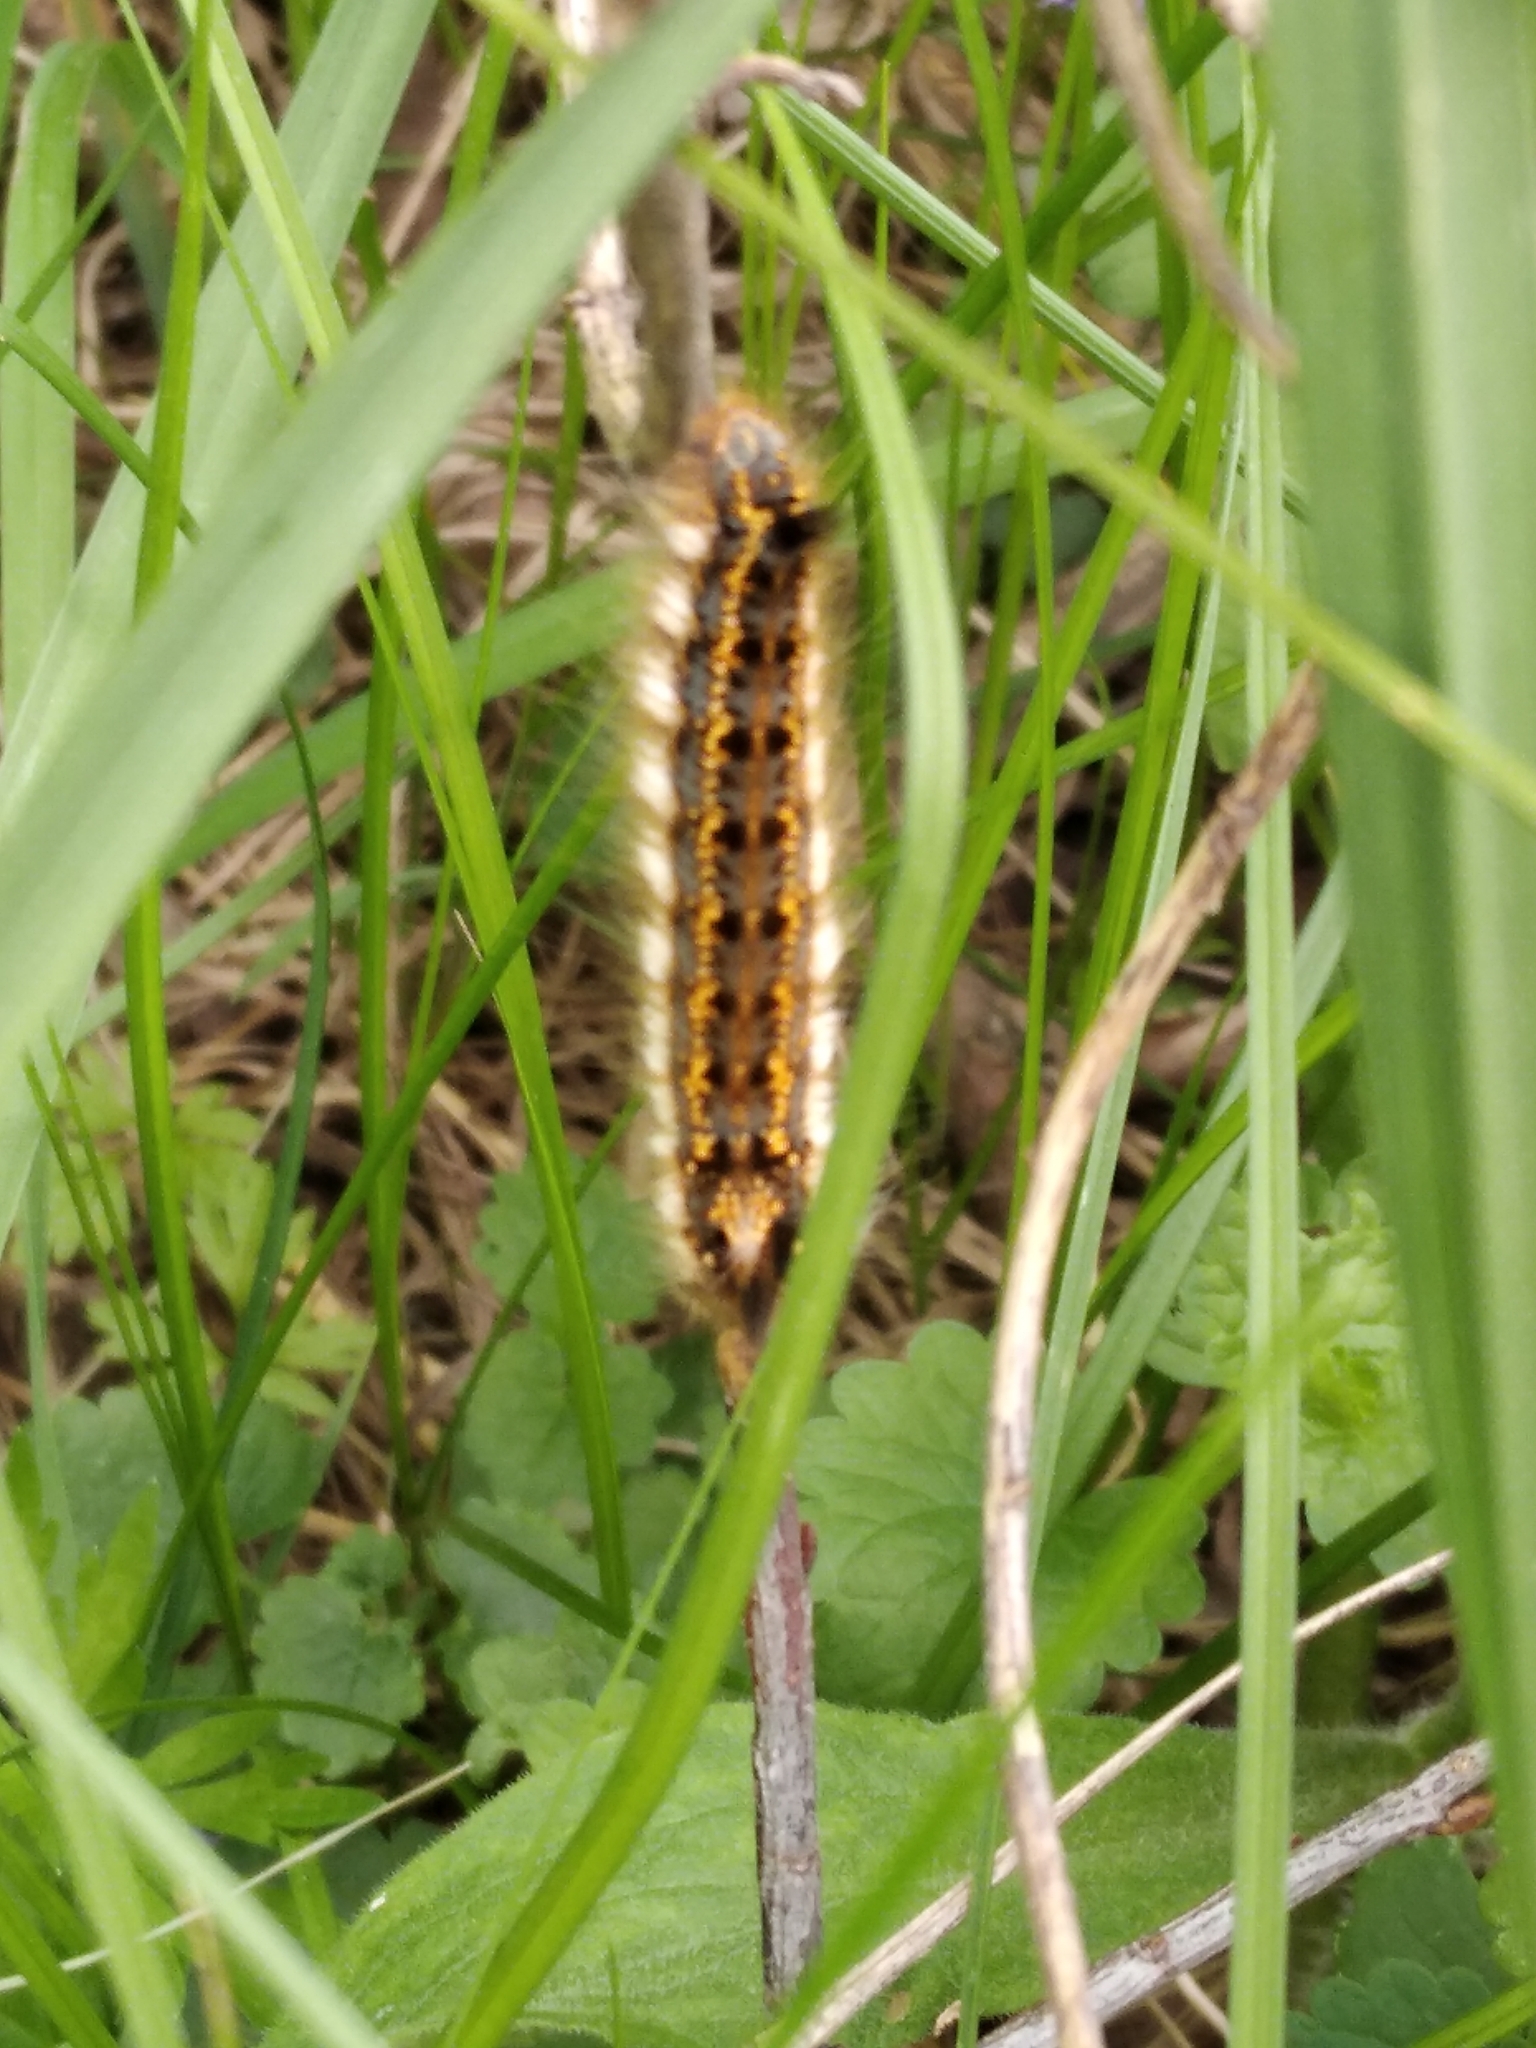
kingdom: Animalia
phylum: Arthropoda
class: Insecta
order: Lepidoptera
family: Lasiocampidae
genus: Euthrix
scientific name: Euthrix potatoria
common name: Drinker
